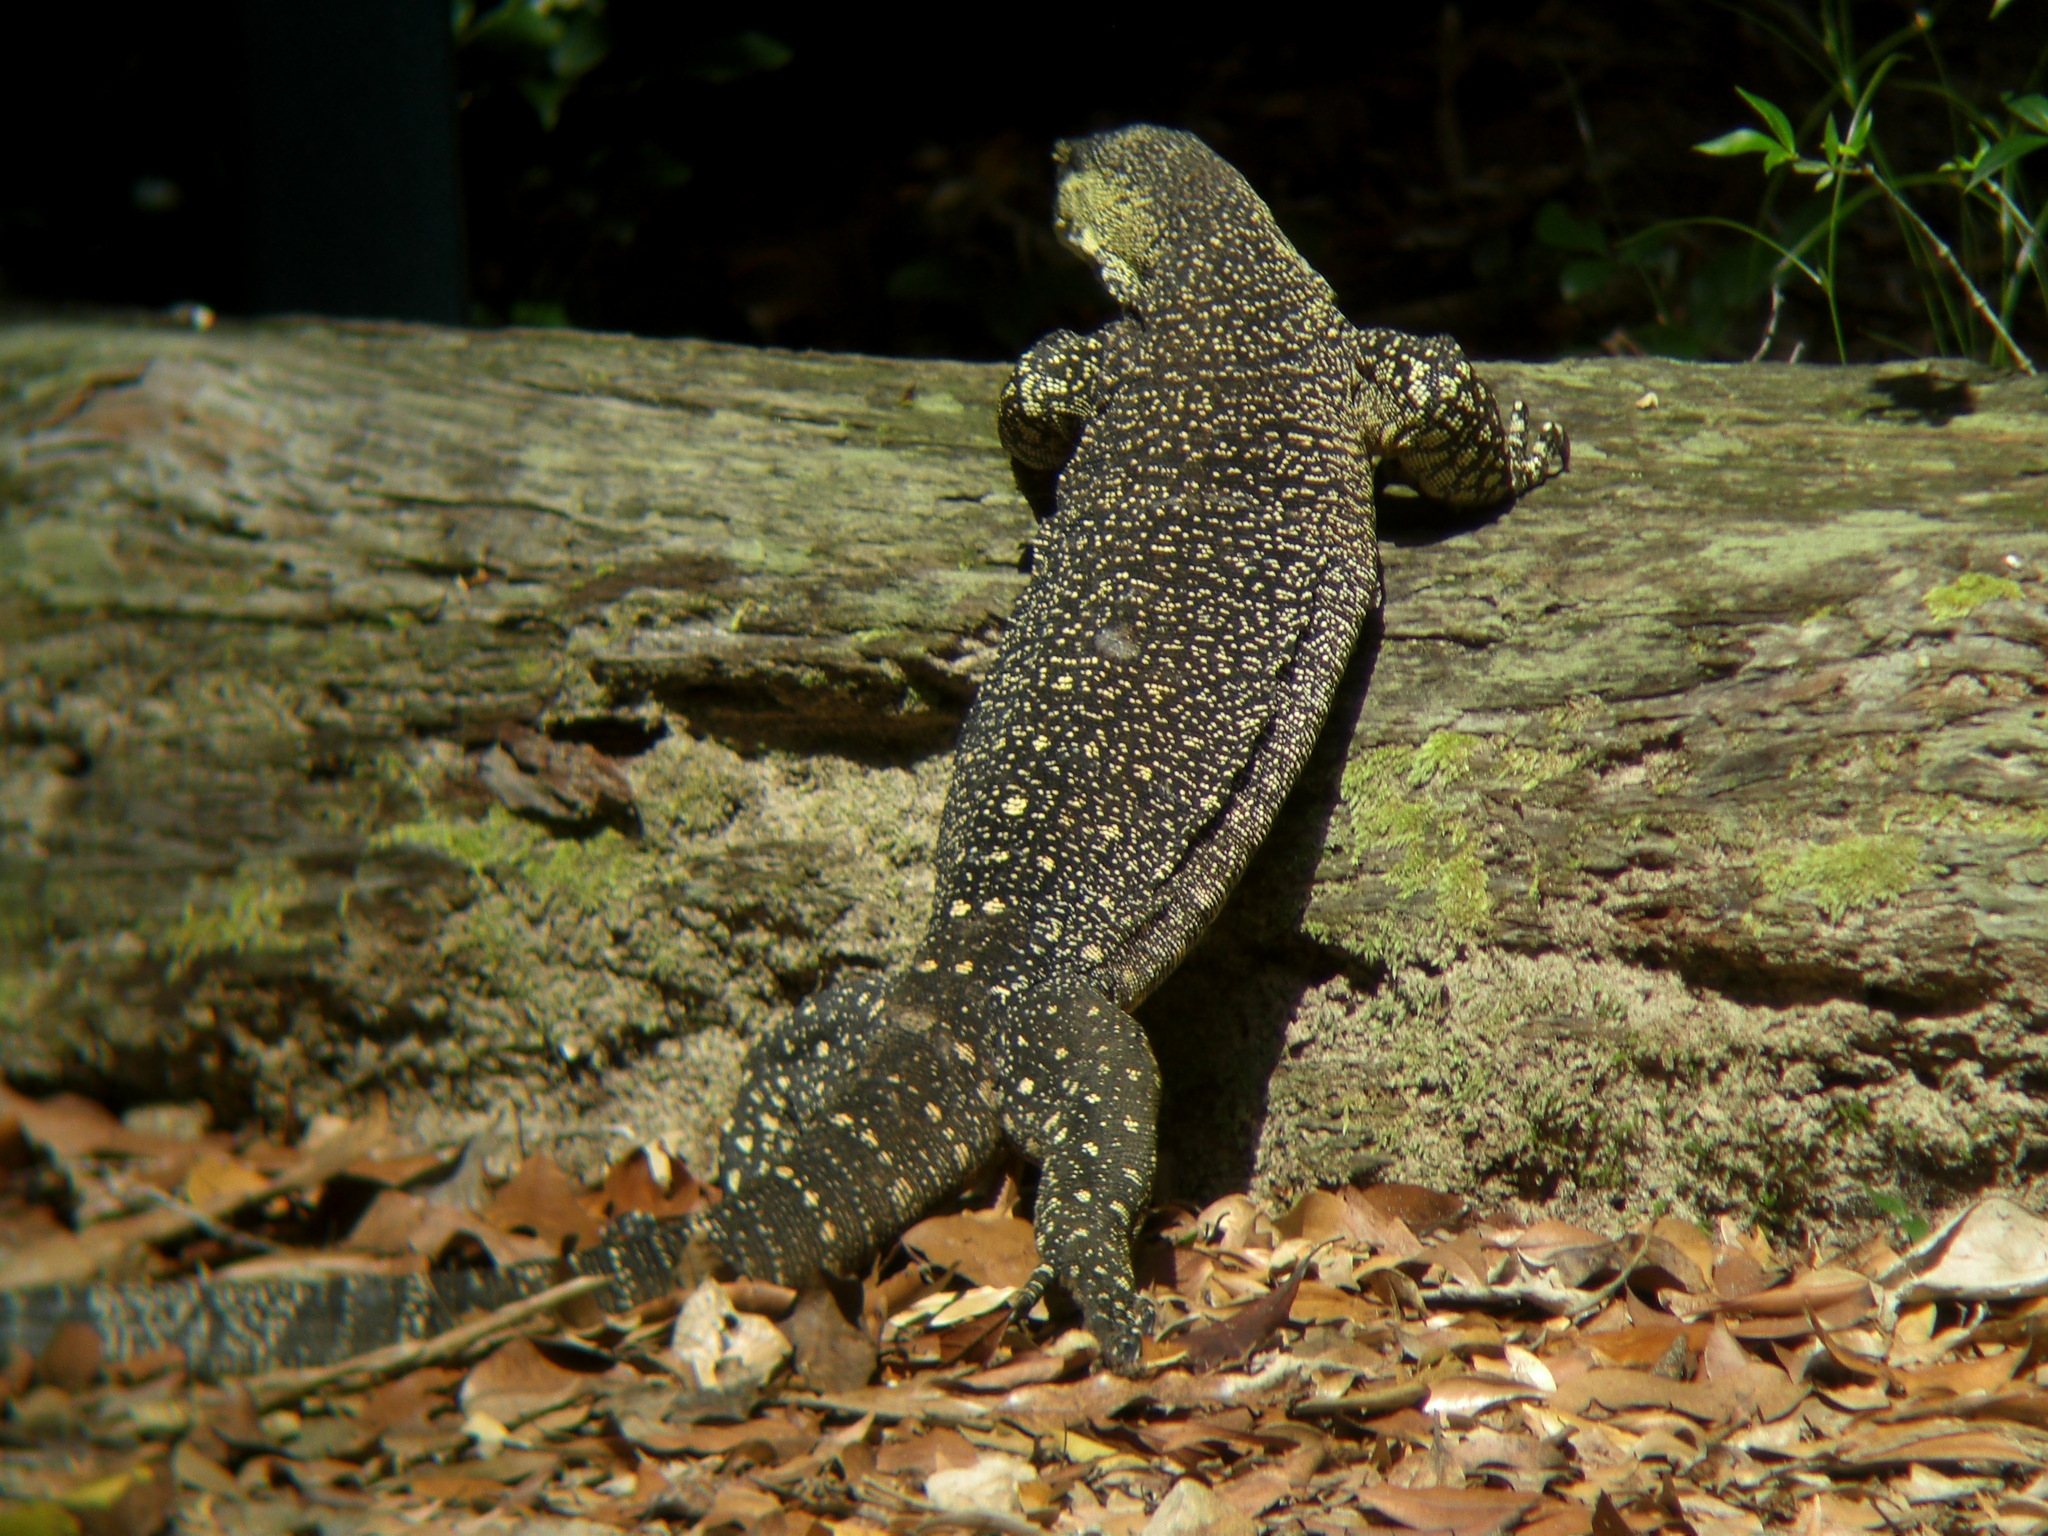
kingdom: Animalia
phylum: Chordata
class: Squamata
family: Varanidae
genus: Varanus
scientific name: Varanus varius
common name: Lace monitor
